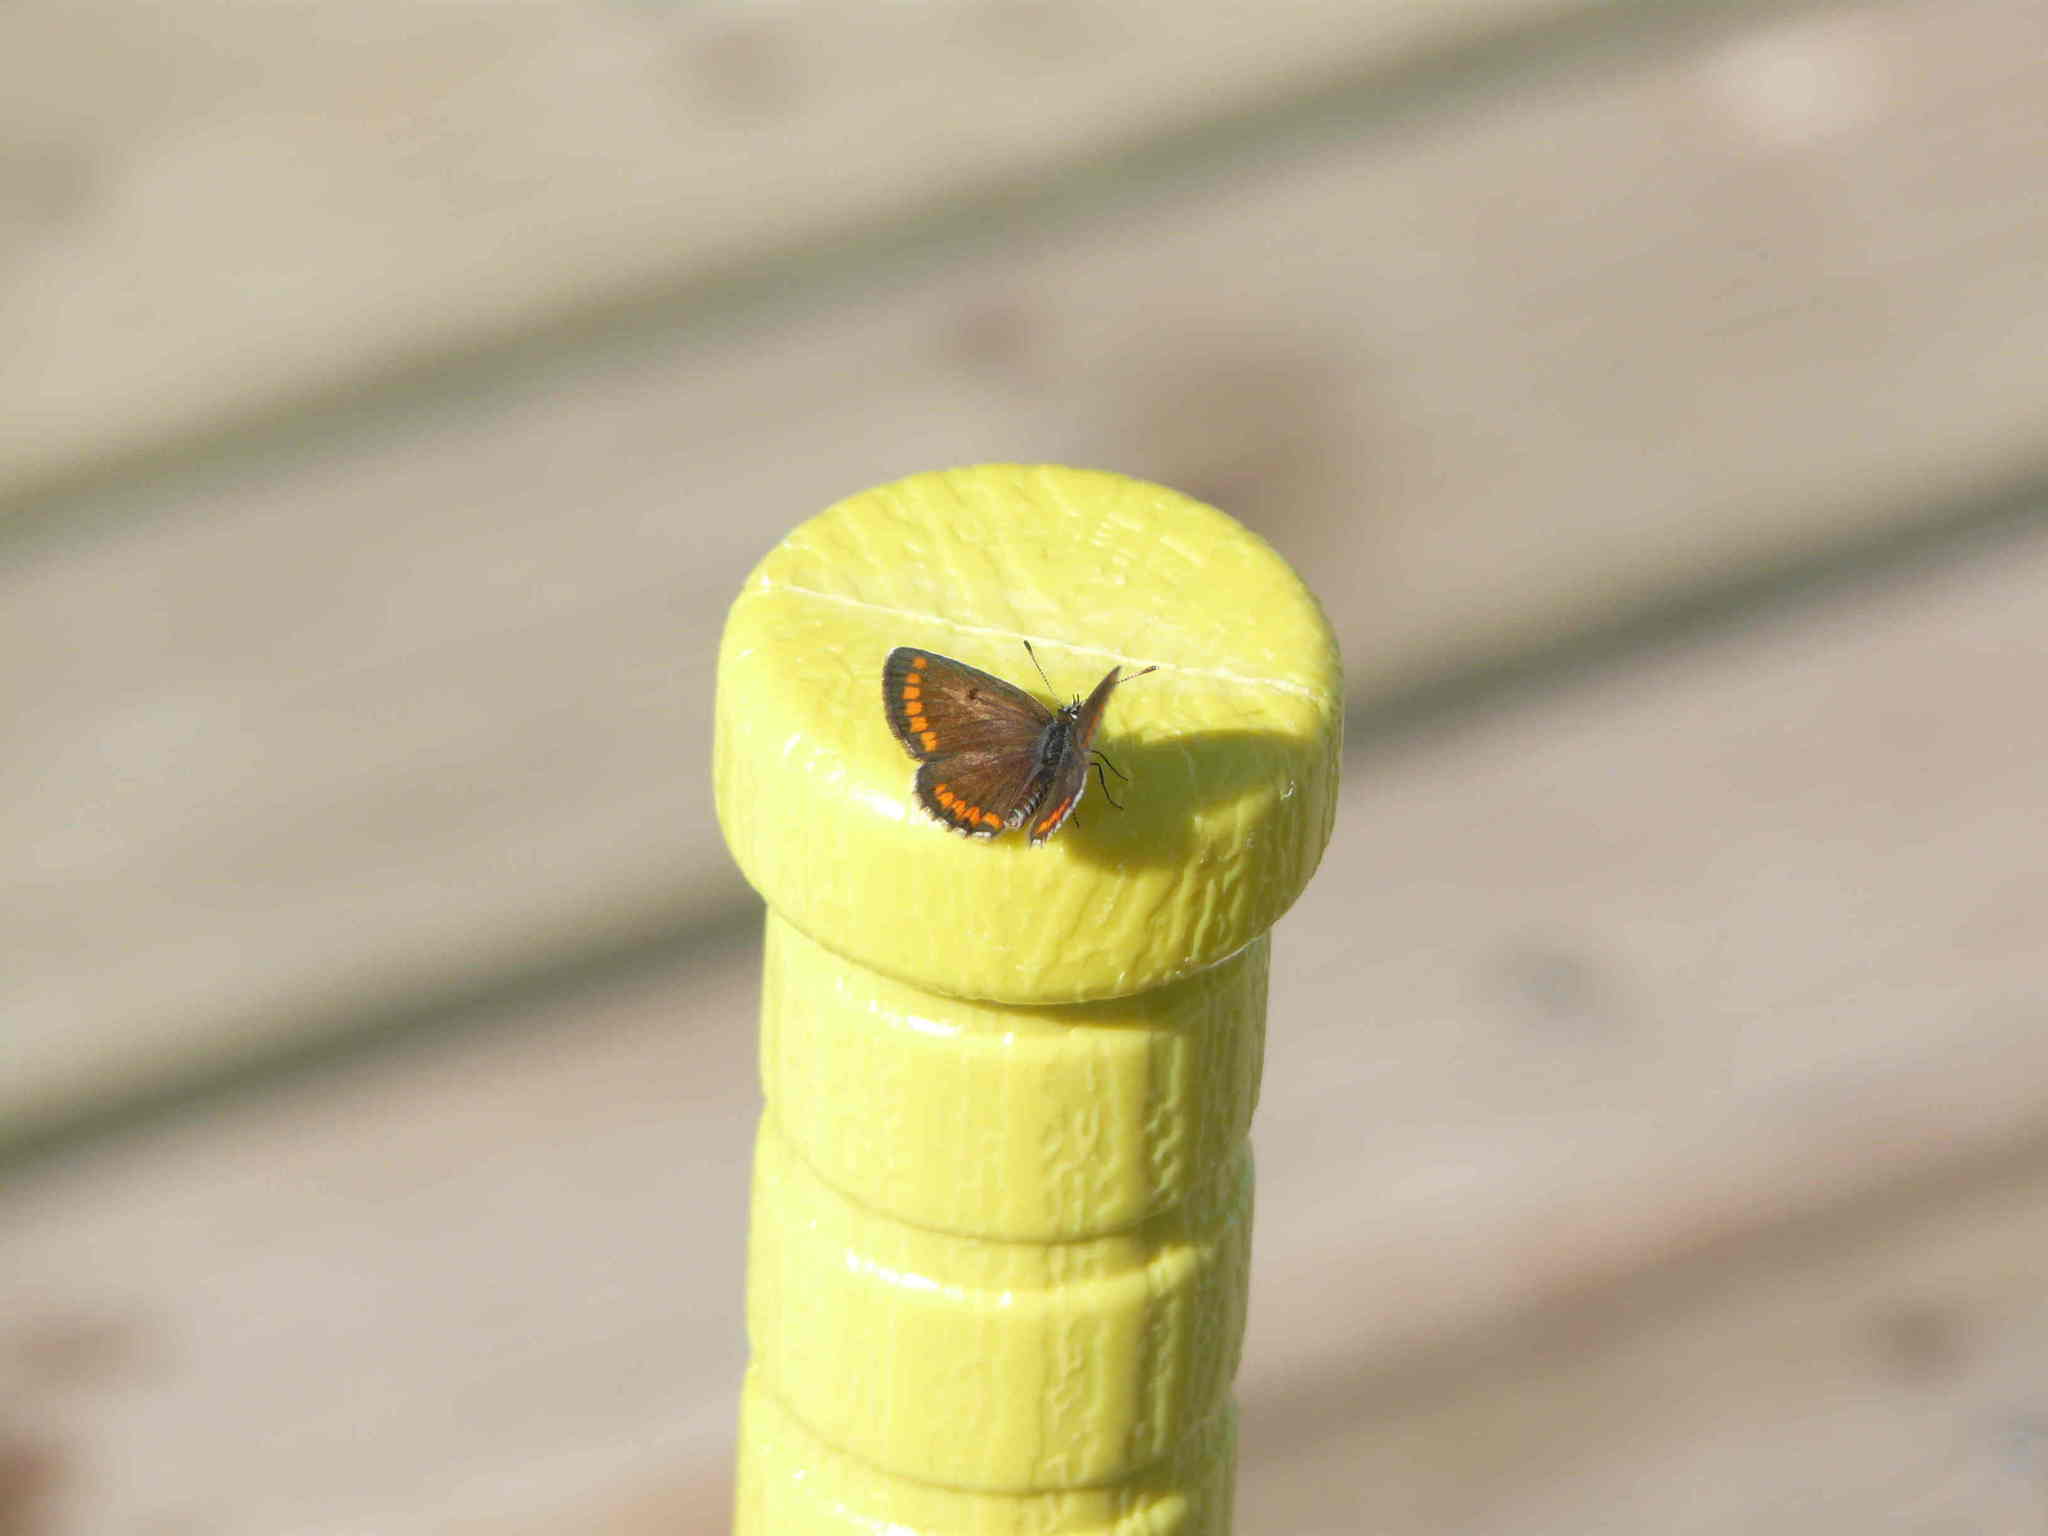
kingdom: Animalia
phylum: Arthropoda
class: Insecta
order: Lepidoptera
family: Lycaenidae
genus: Aricia
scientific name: Aricia agestis
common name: Brown argus
